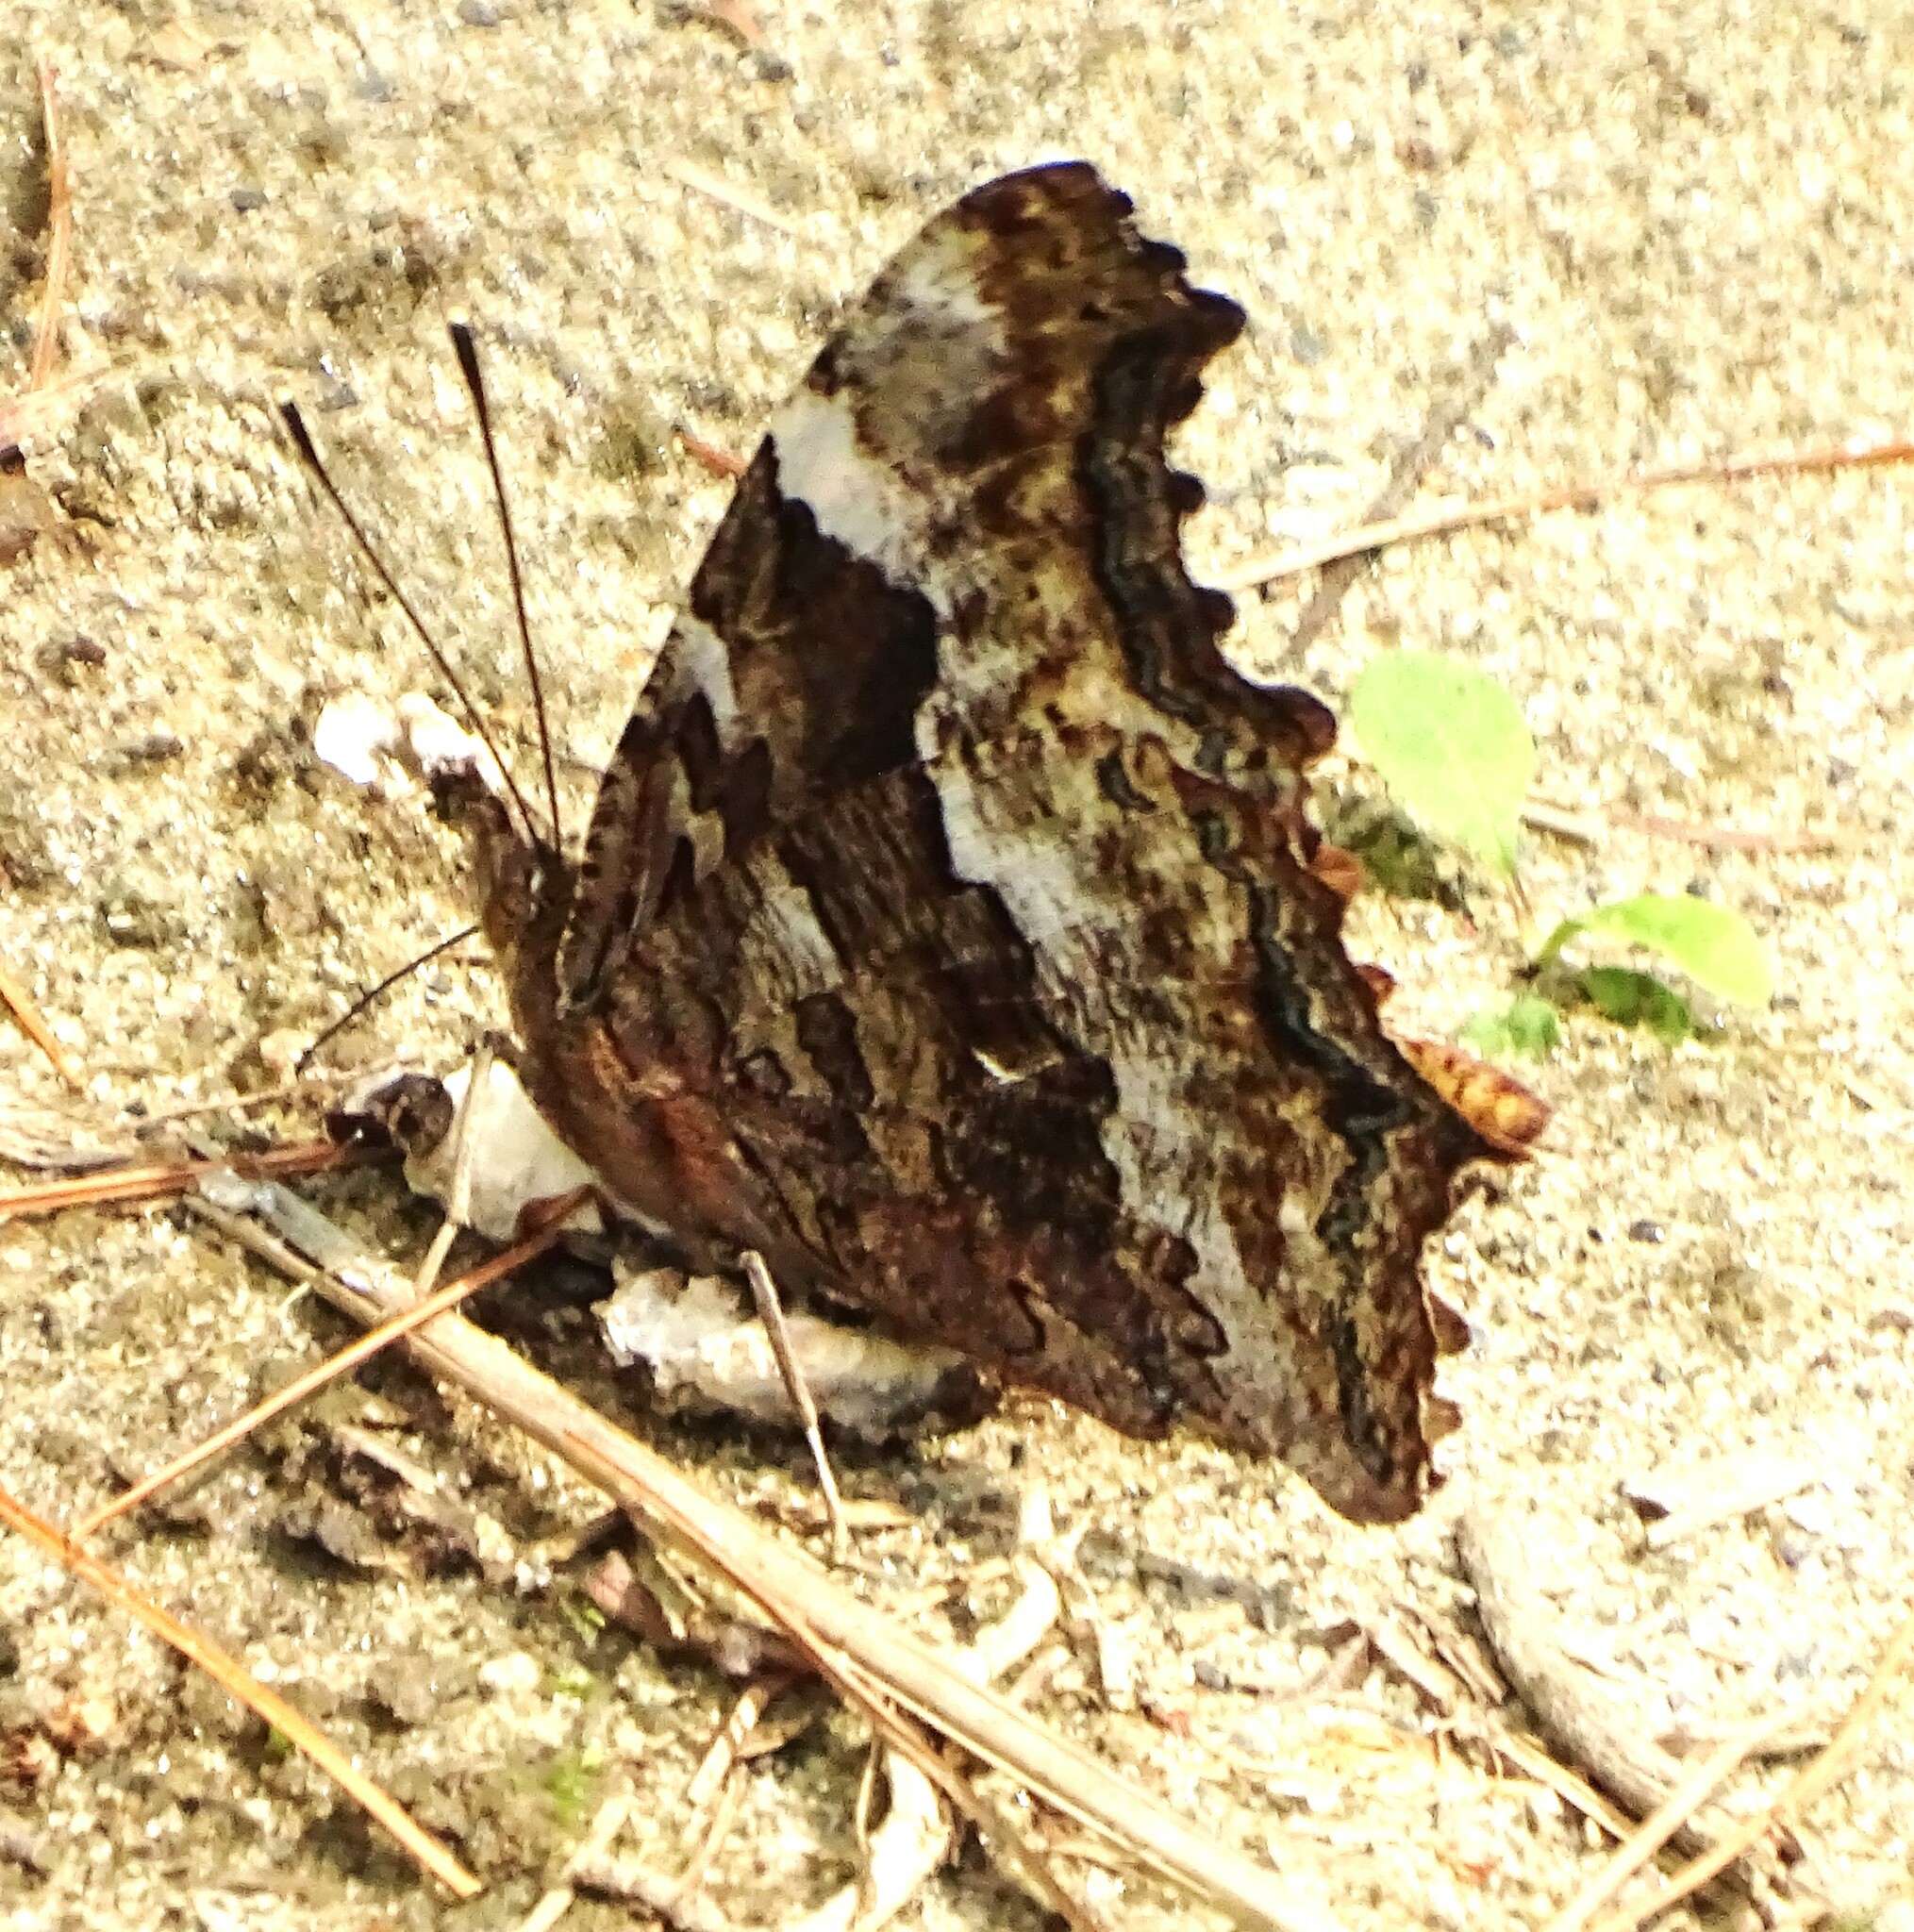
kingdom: Animalia
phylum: Arthropoda
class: Insecta
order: Lepidoptera
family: Nymphalidae
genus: Polygonia
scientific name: Polygonia vaualbum
